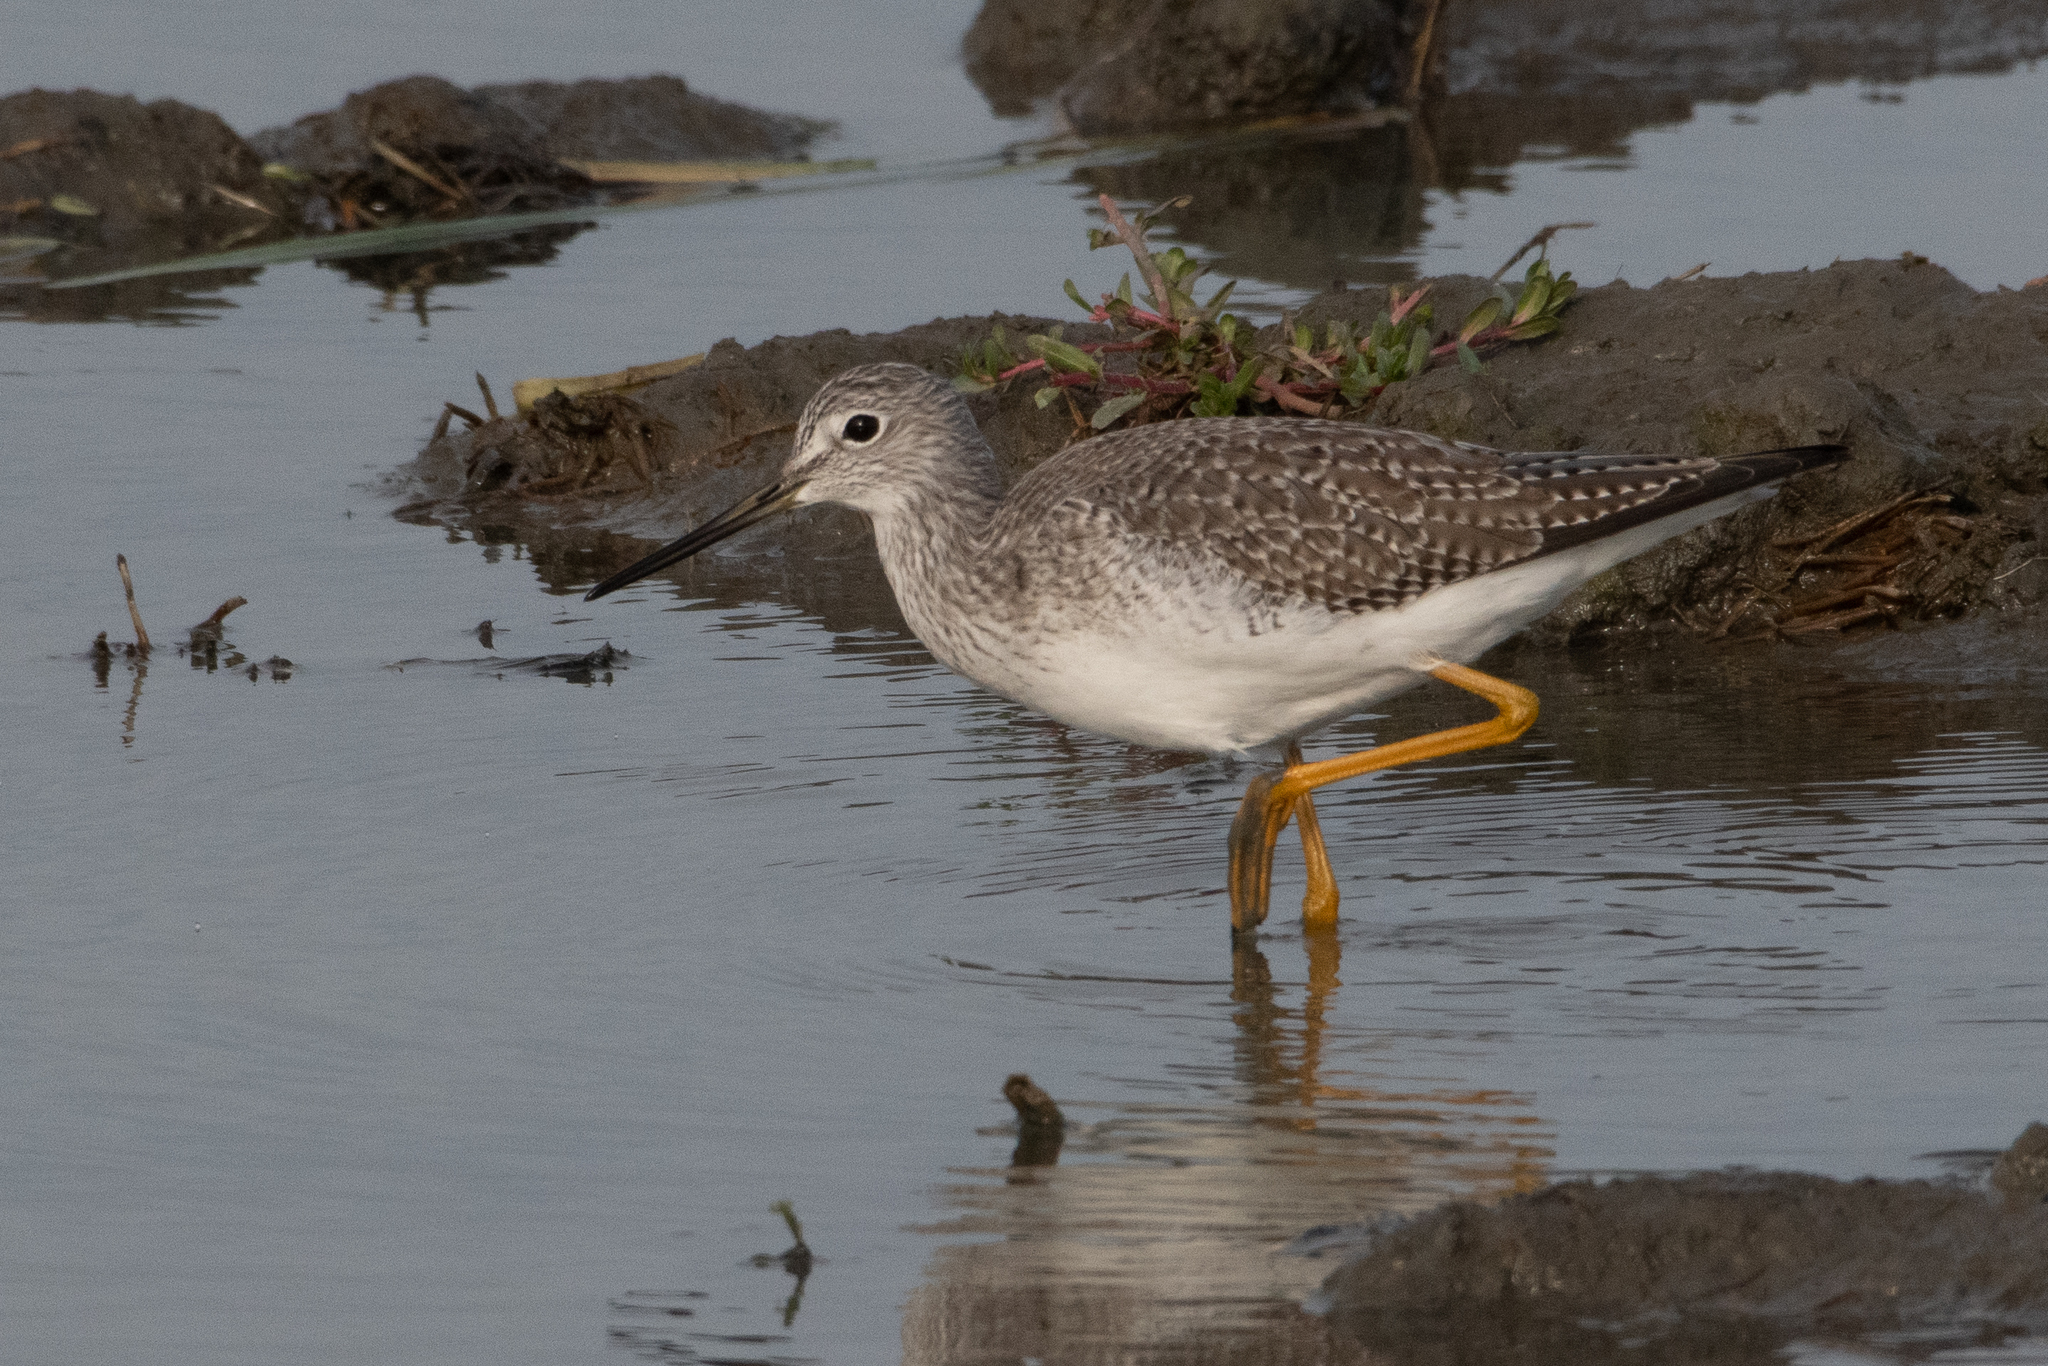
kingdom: Animalia
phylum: Chordata
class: Aves
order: Charadriiformes
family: Scolopacidae
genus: Tringa
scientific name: Tringa melanoleuca
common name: Greater yellowlegs
